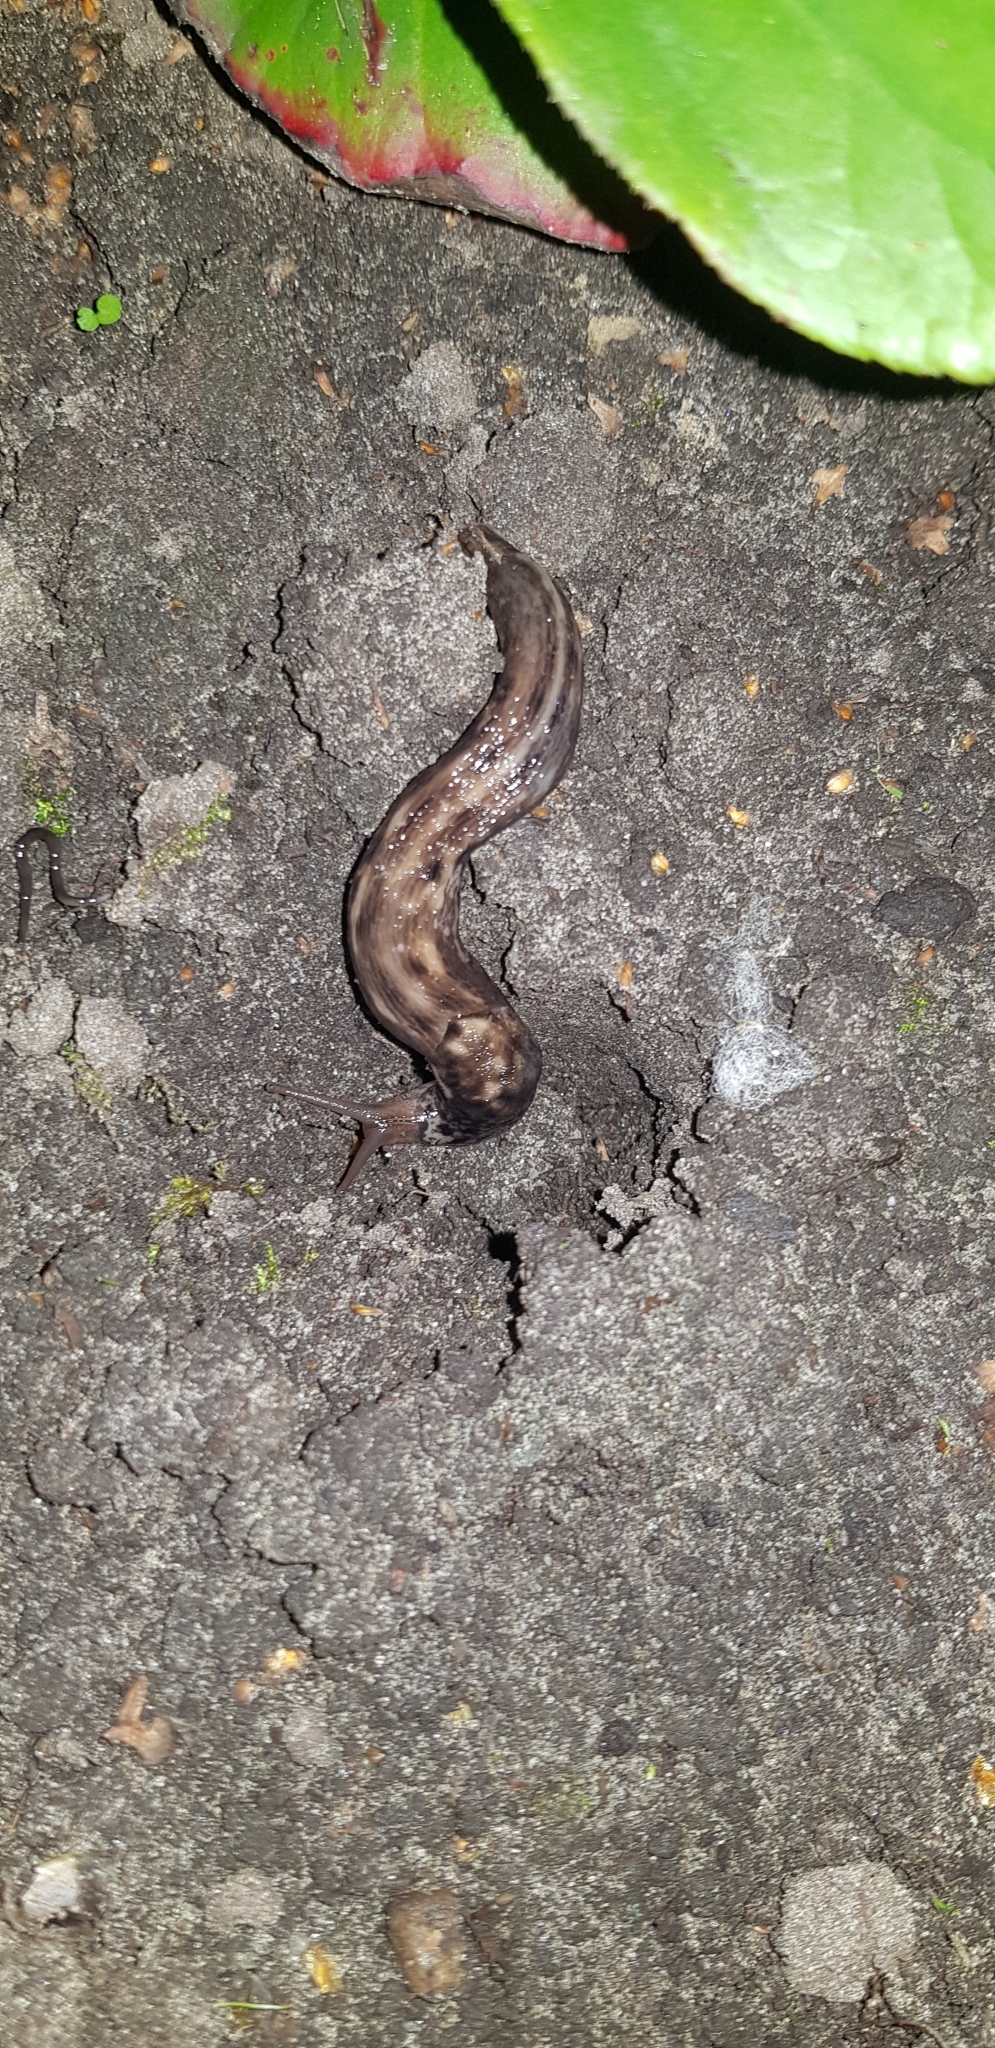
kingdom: Animalia
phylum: Mollusca
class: Gastropoda
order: Stylommatophora
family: Limacidae
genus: Limax
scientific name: Limax maximus
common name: Great grey slug
